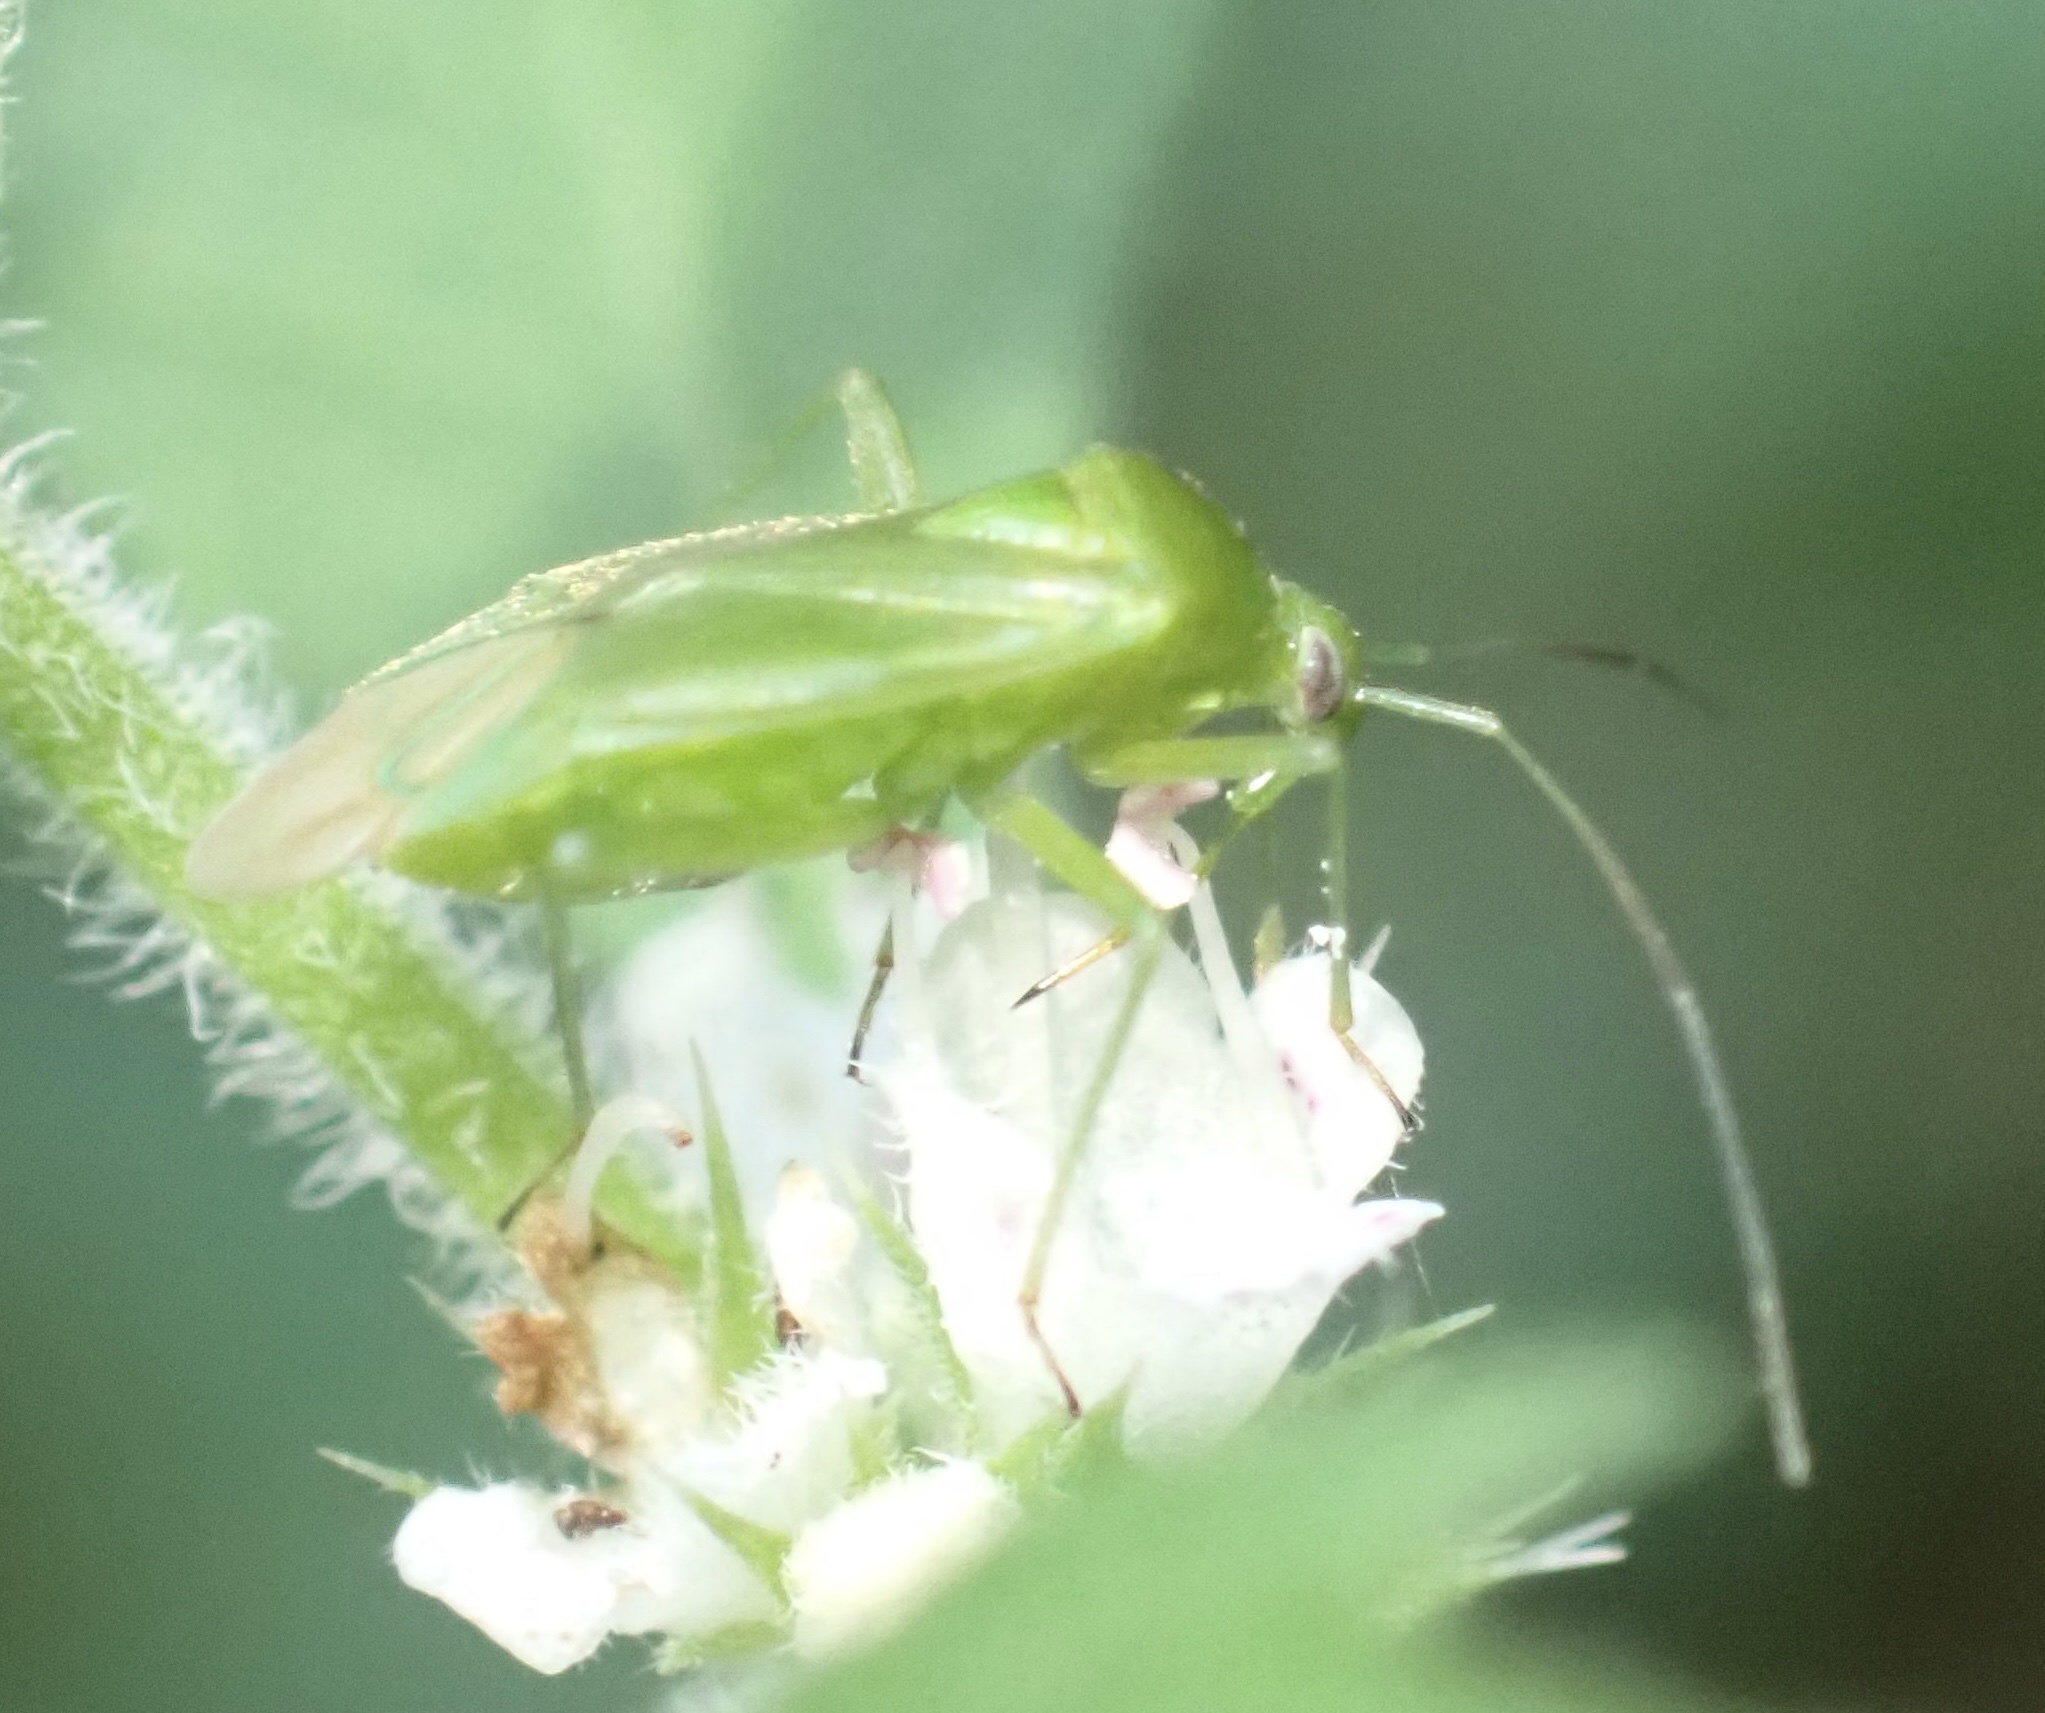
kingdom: Animalia
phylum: Arthropoda
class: Insecta
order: Hemiptera
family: Miridae
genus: Lygocoris
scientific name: Lygocoris pabulinus
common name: Common green capsid
